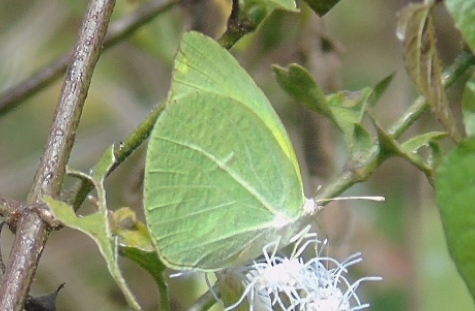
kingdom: Animalia
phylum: Arthropoda
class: Insecta
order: Lepidoptera
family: Pieridae
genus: Kricogonia
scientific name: Kricogonia lyside
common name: Guayacan sulphur,
